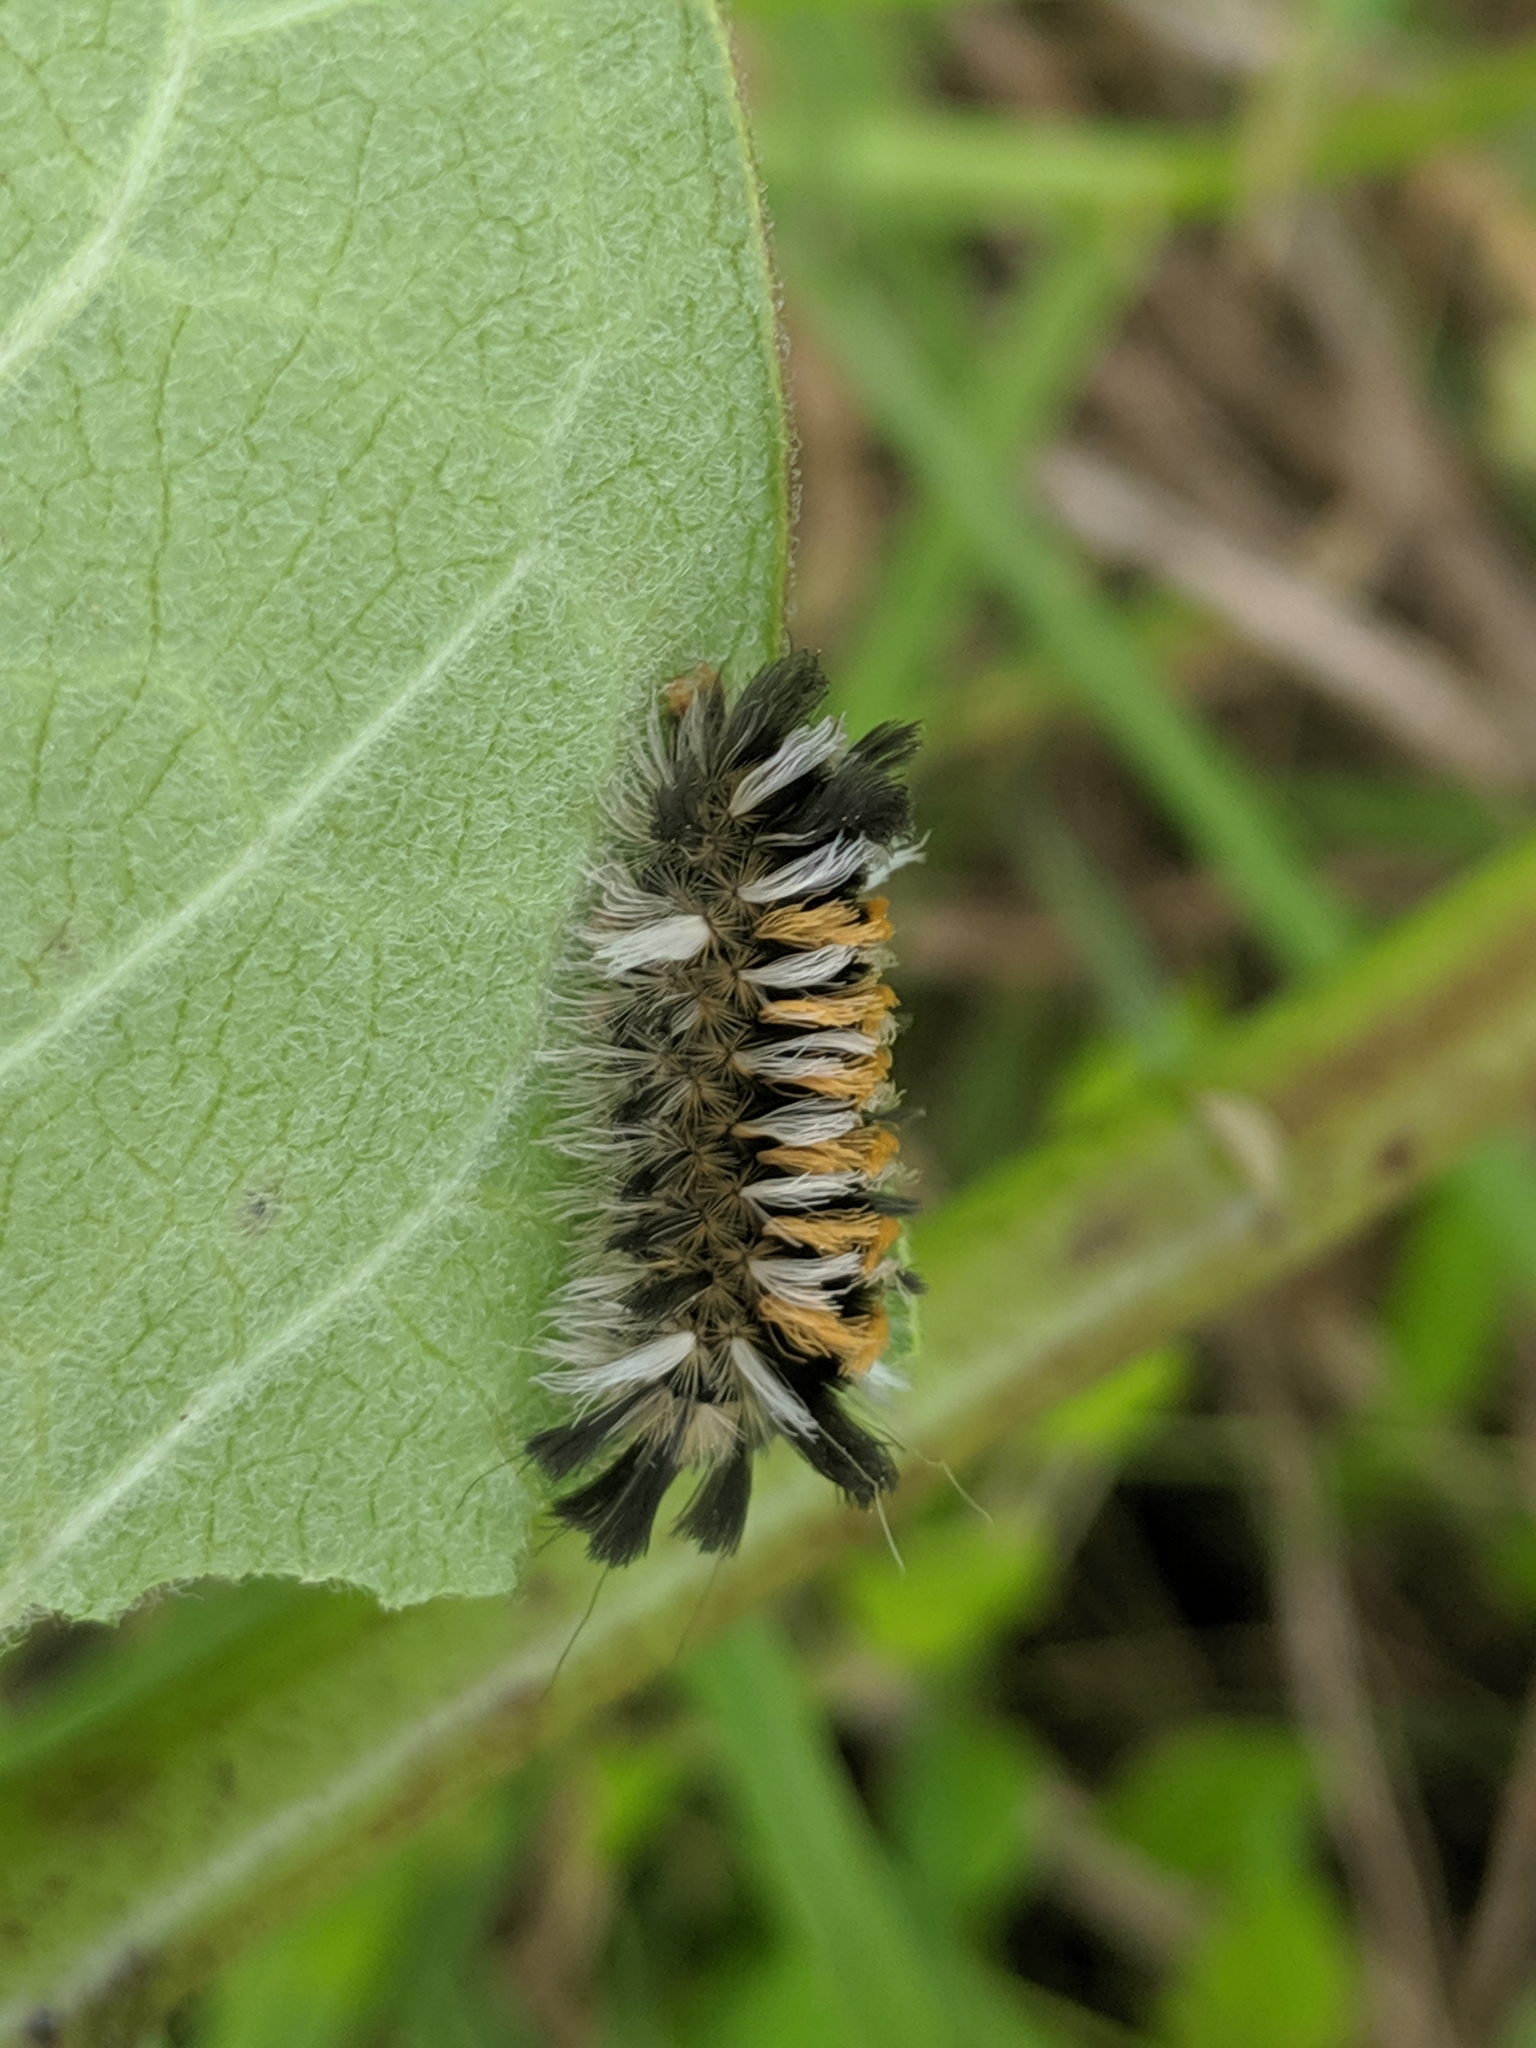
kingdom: Animalia
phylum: Arthropoda
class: Insecta
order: Lepidoptera
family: Erebidae
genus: Euchaetes
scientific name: Euchaetes egle
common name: Milkweed tussock moth
